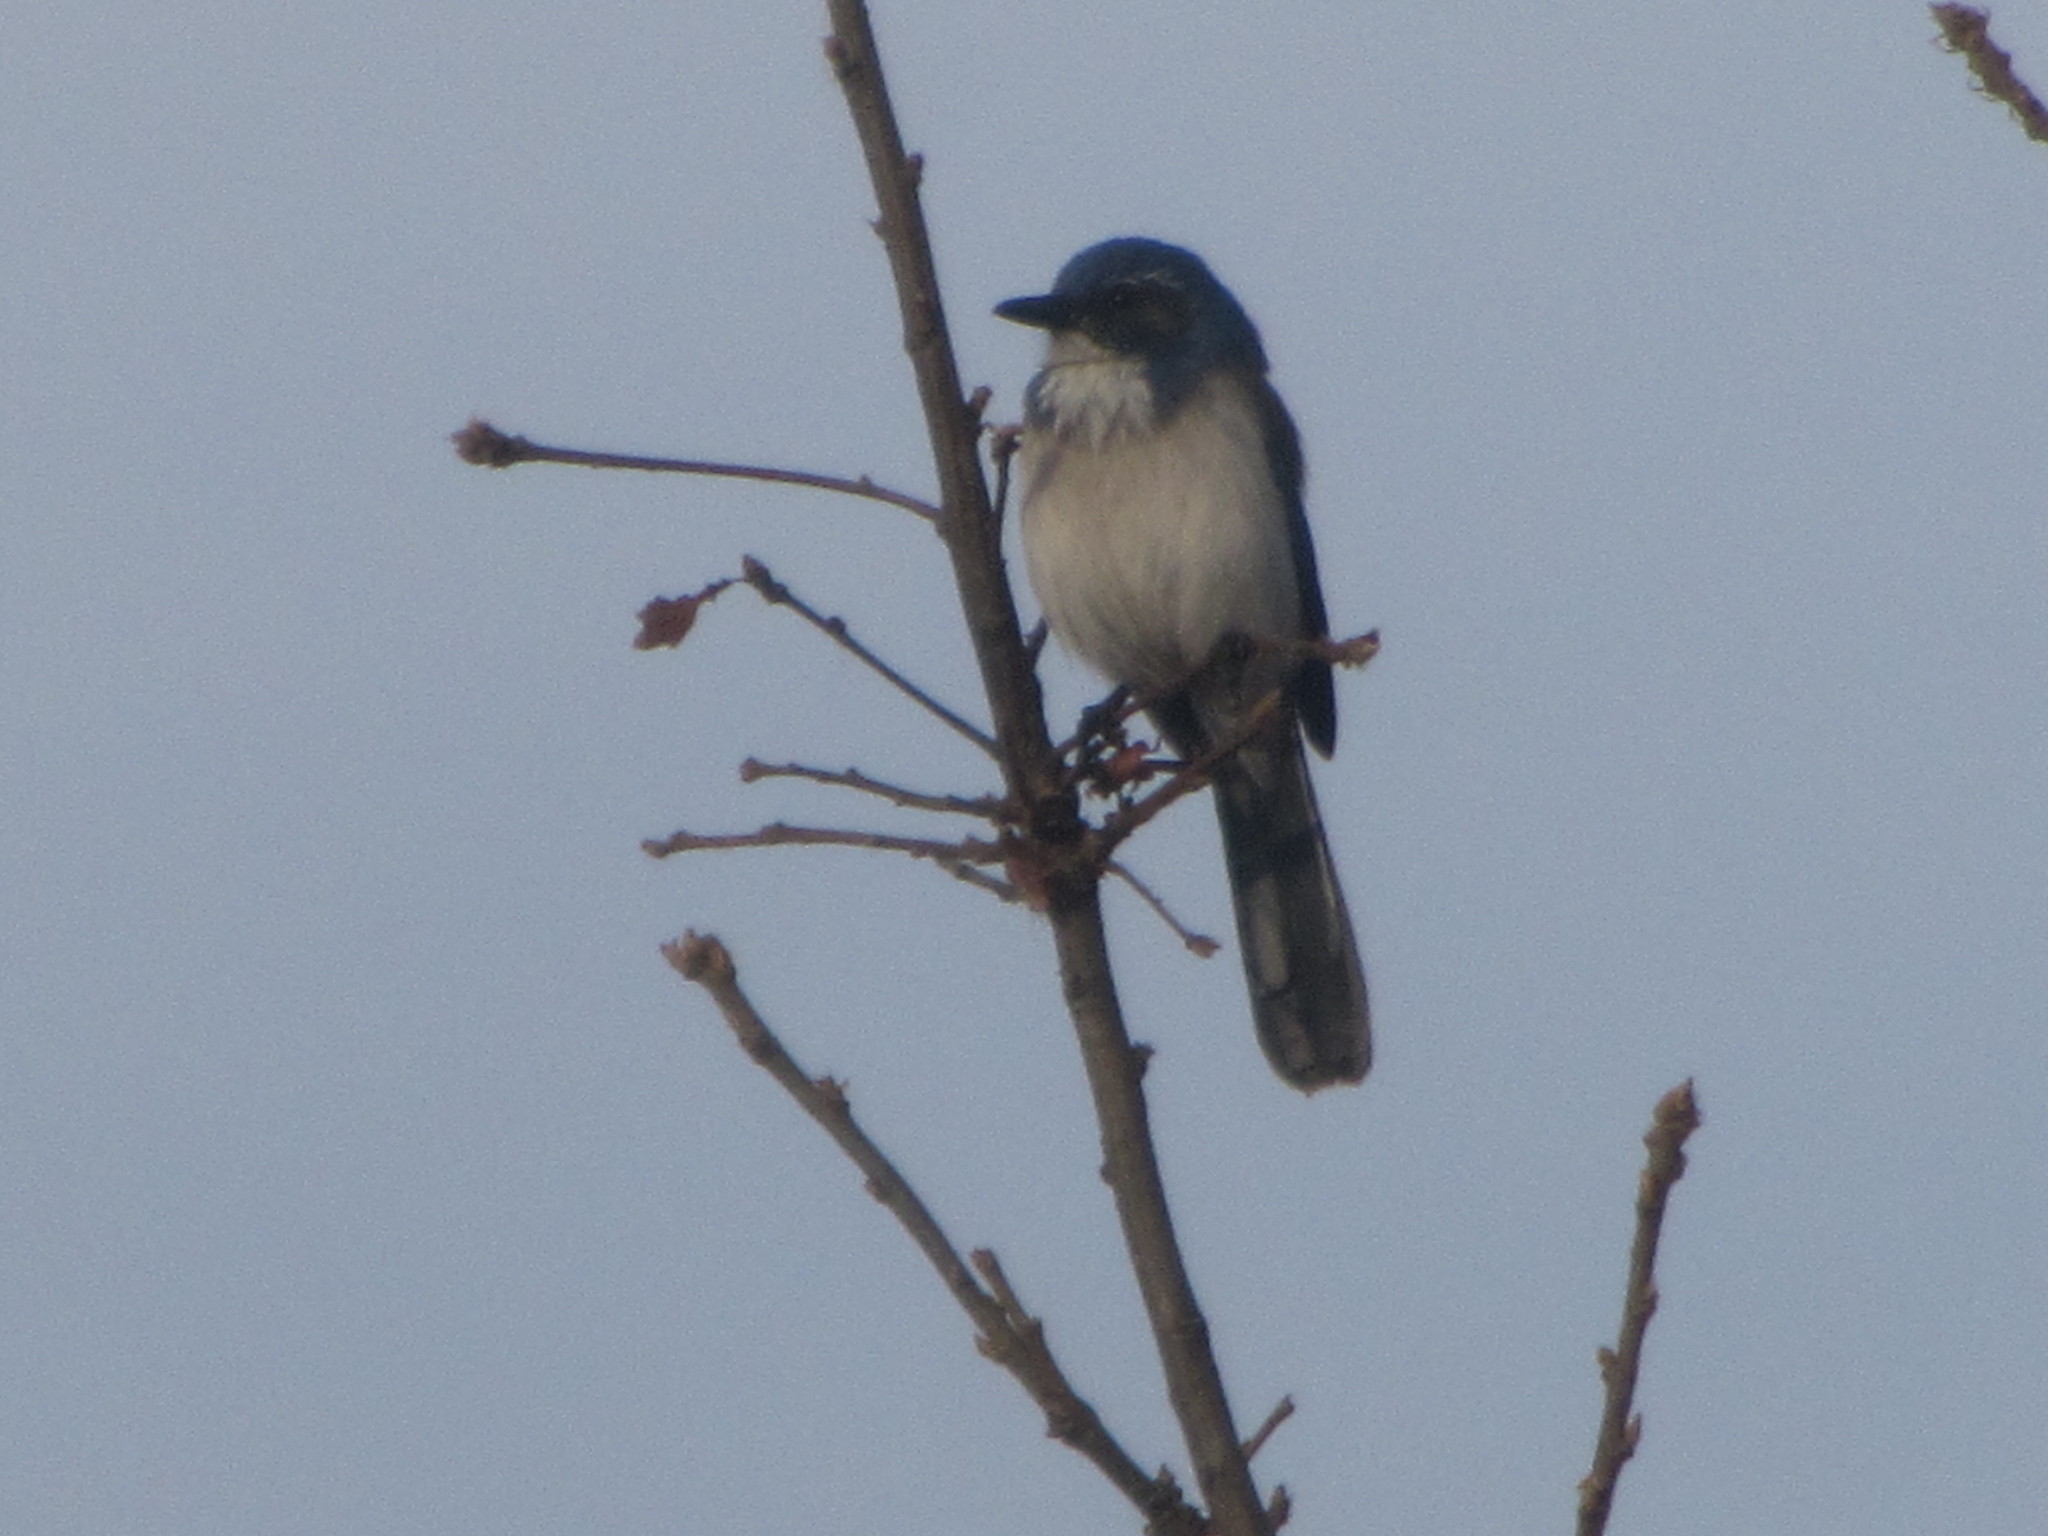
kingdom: Animalia
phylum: Chordata
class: Aves
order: Passeriformes
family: Corvidae
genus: Aphelocoma
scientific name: Aphelocoma californica
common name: California scrub-jay
